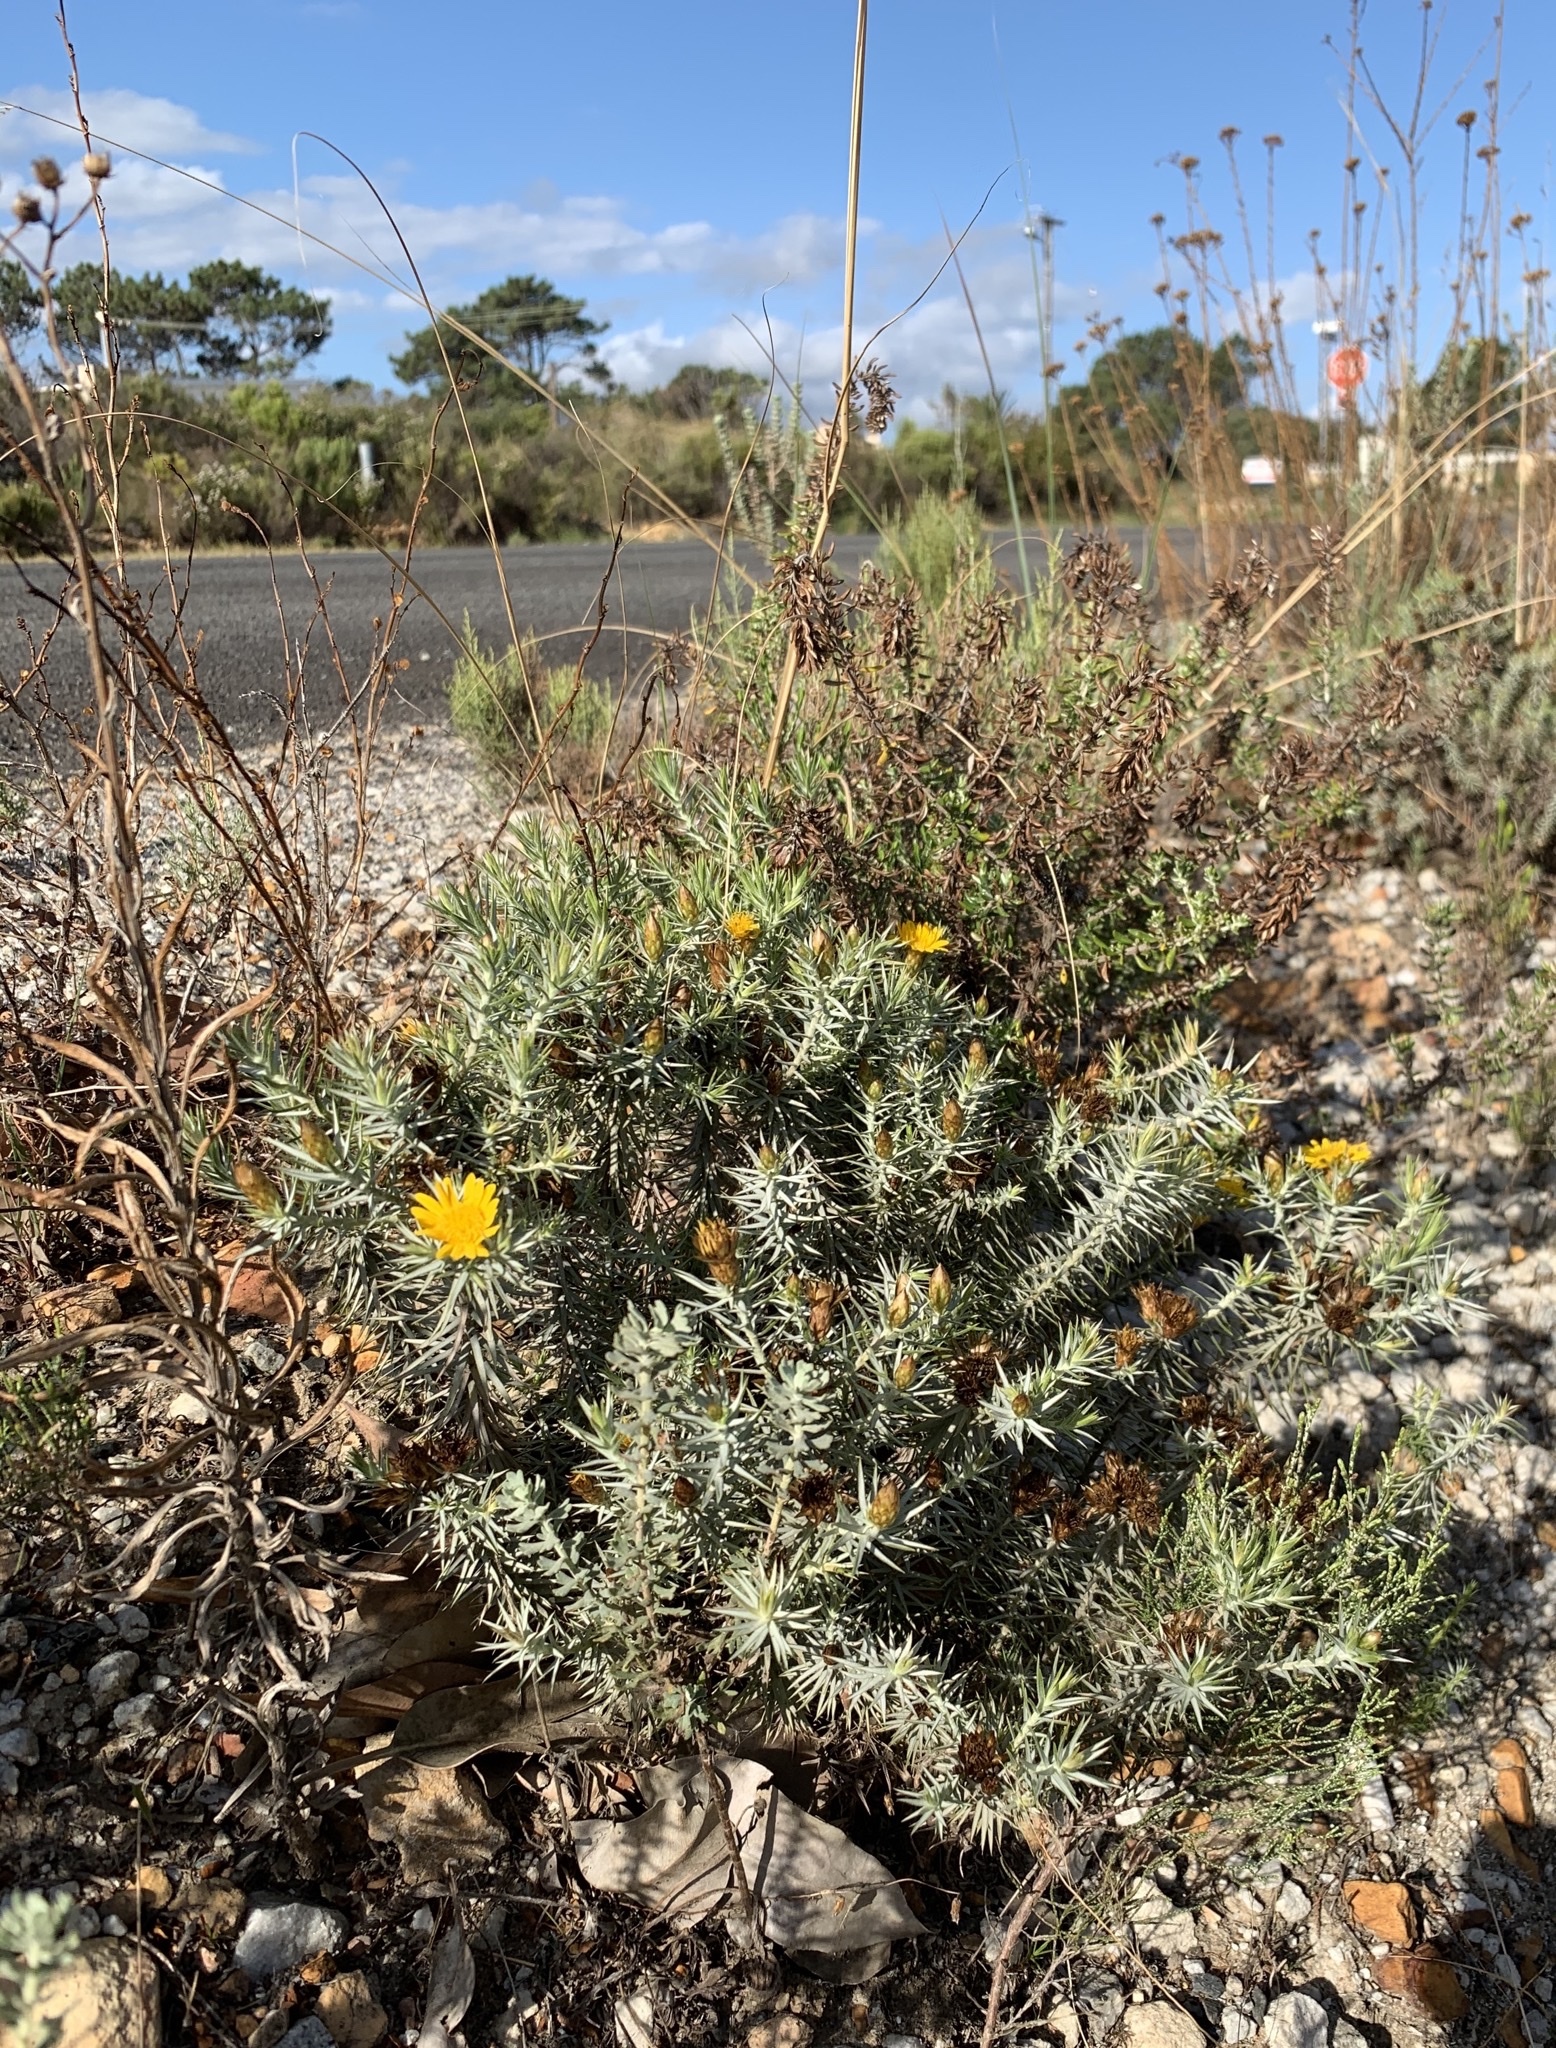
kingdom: Plantae
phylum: Tracheophyta
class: Magnoliopsida
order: Asterales
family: Asteraceae
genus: Oedera
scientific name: Oedera pungens
